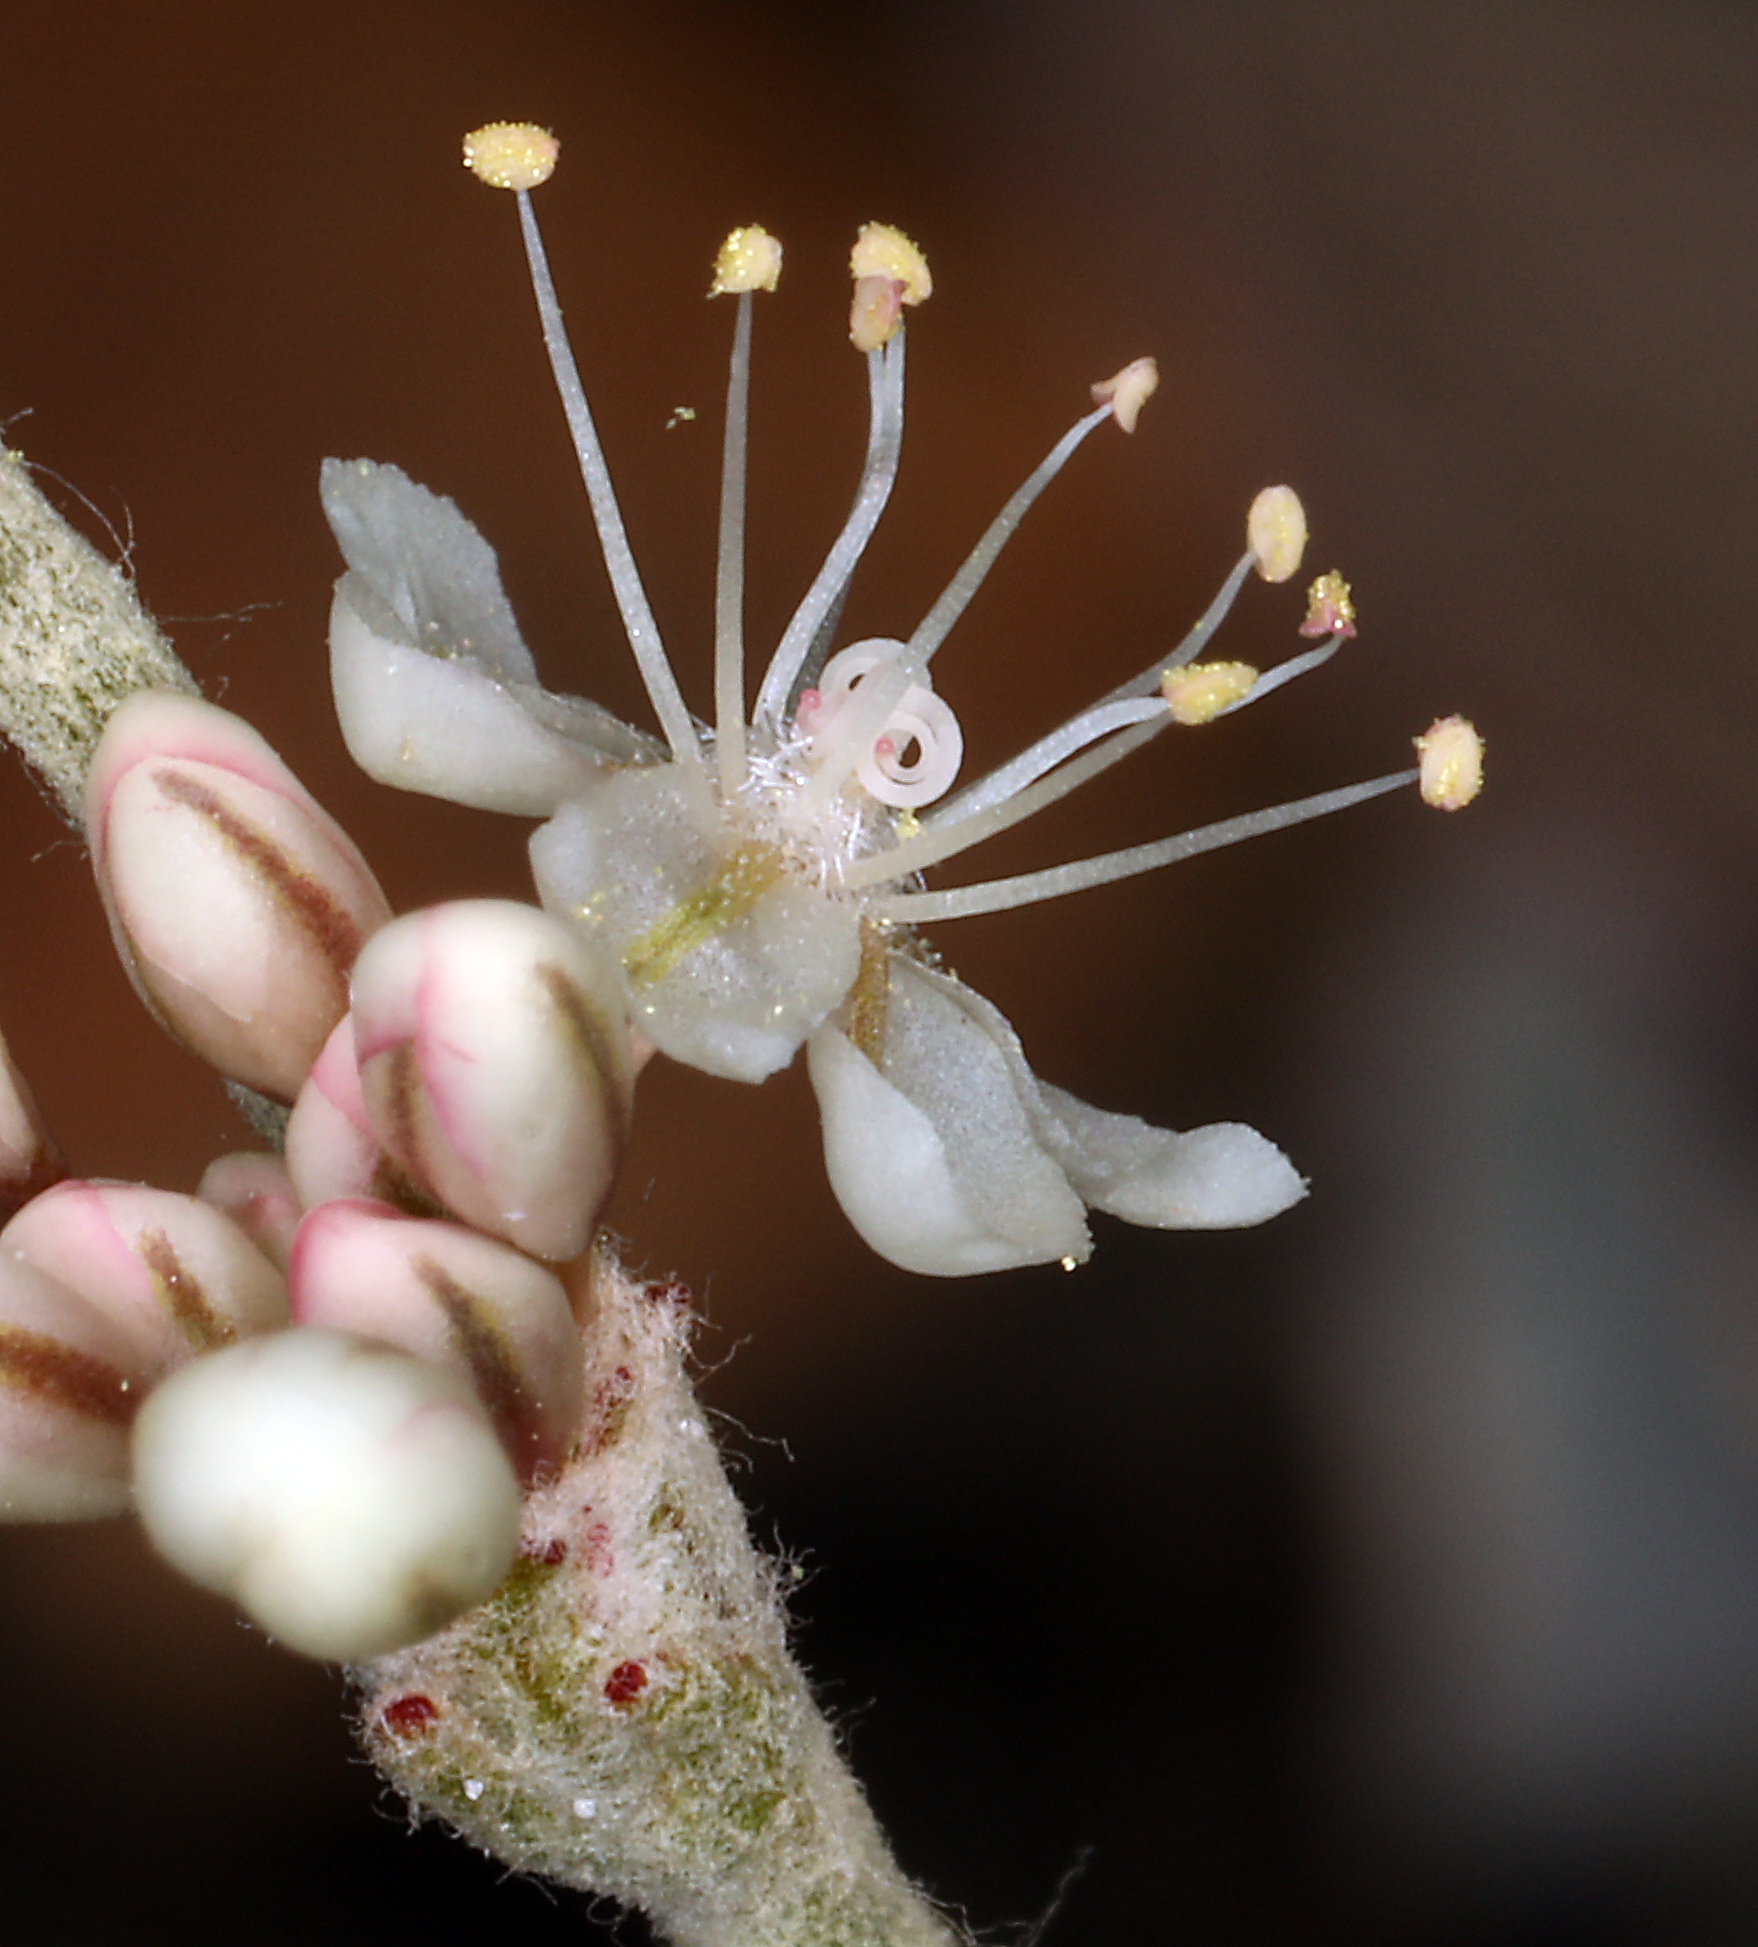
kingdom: Plantae
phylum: Tracheophyta
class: Magnoliopsida
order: Caryophyllales
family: Polygonaceae
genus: Eriogonum
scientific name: Eriogonum rupinum
